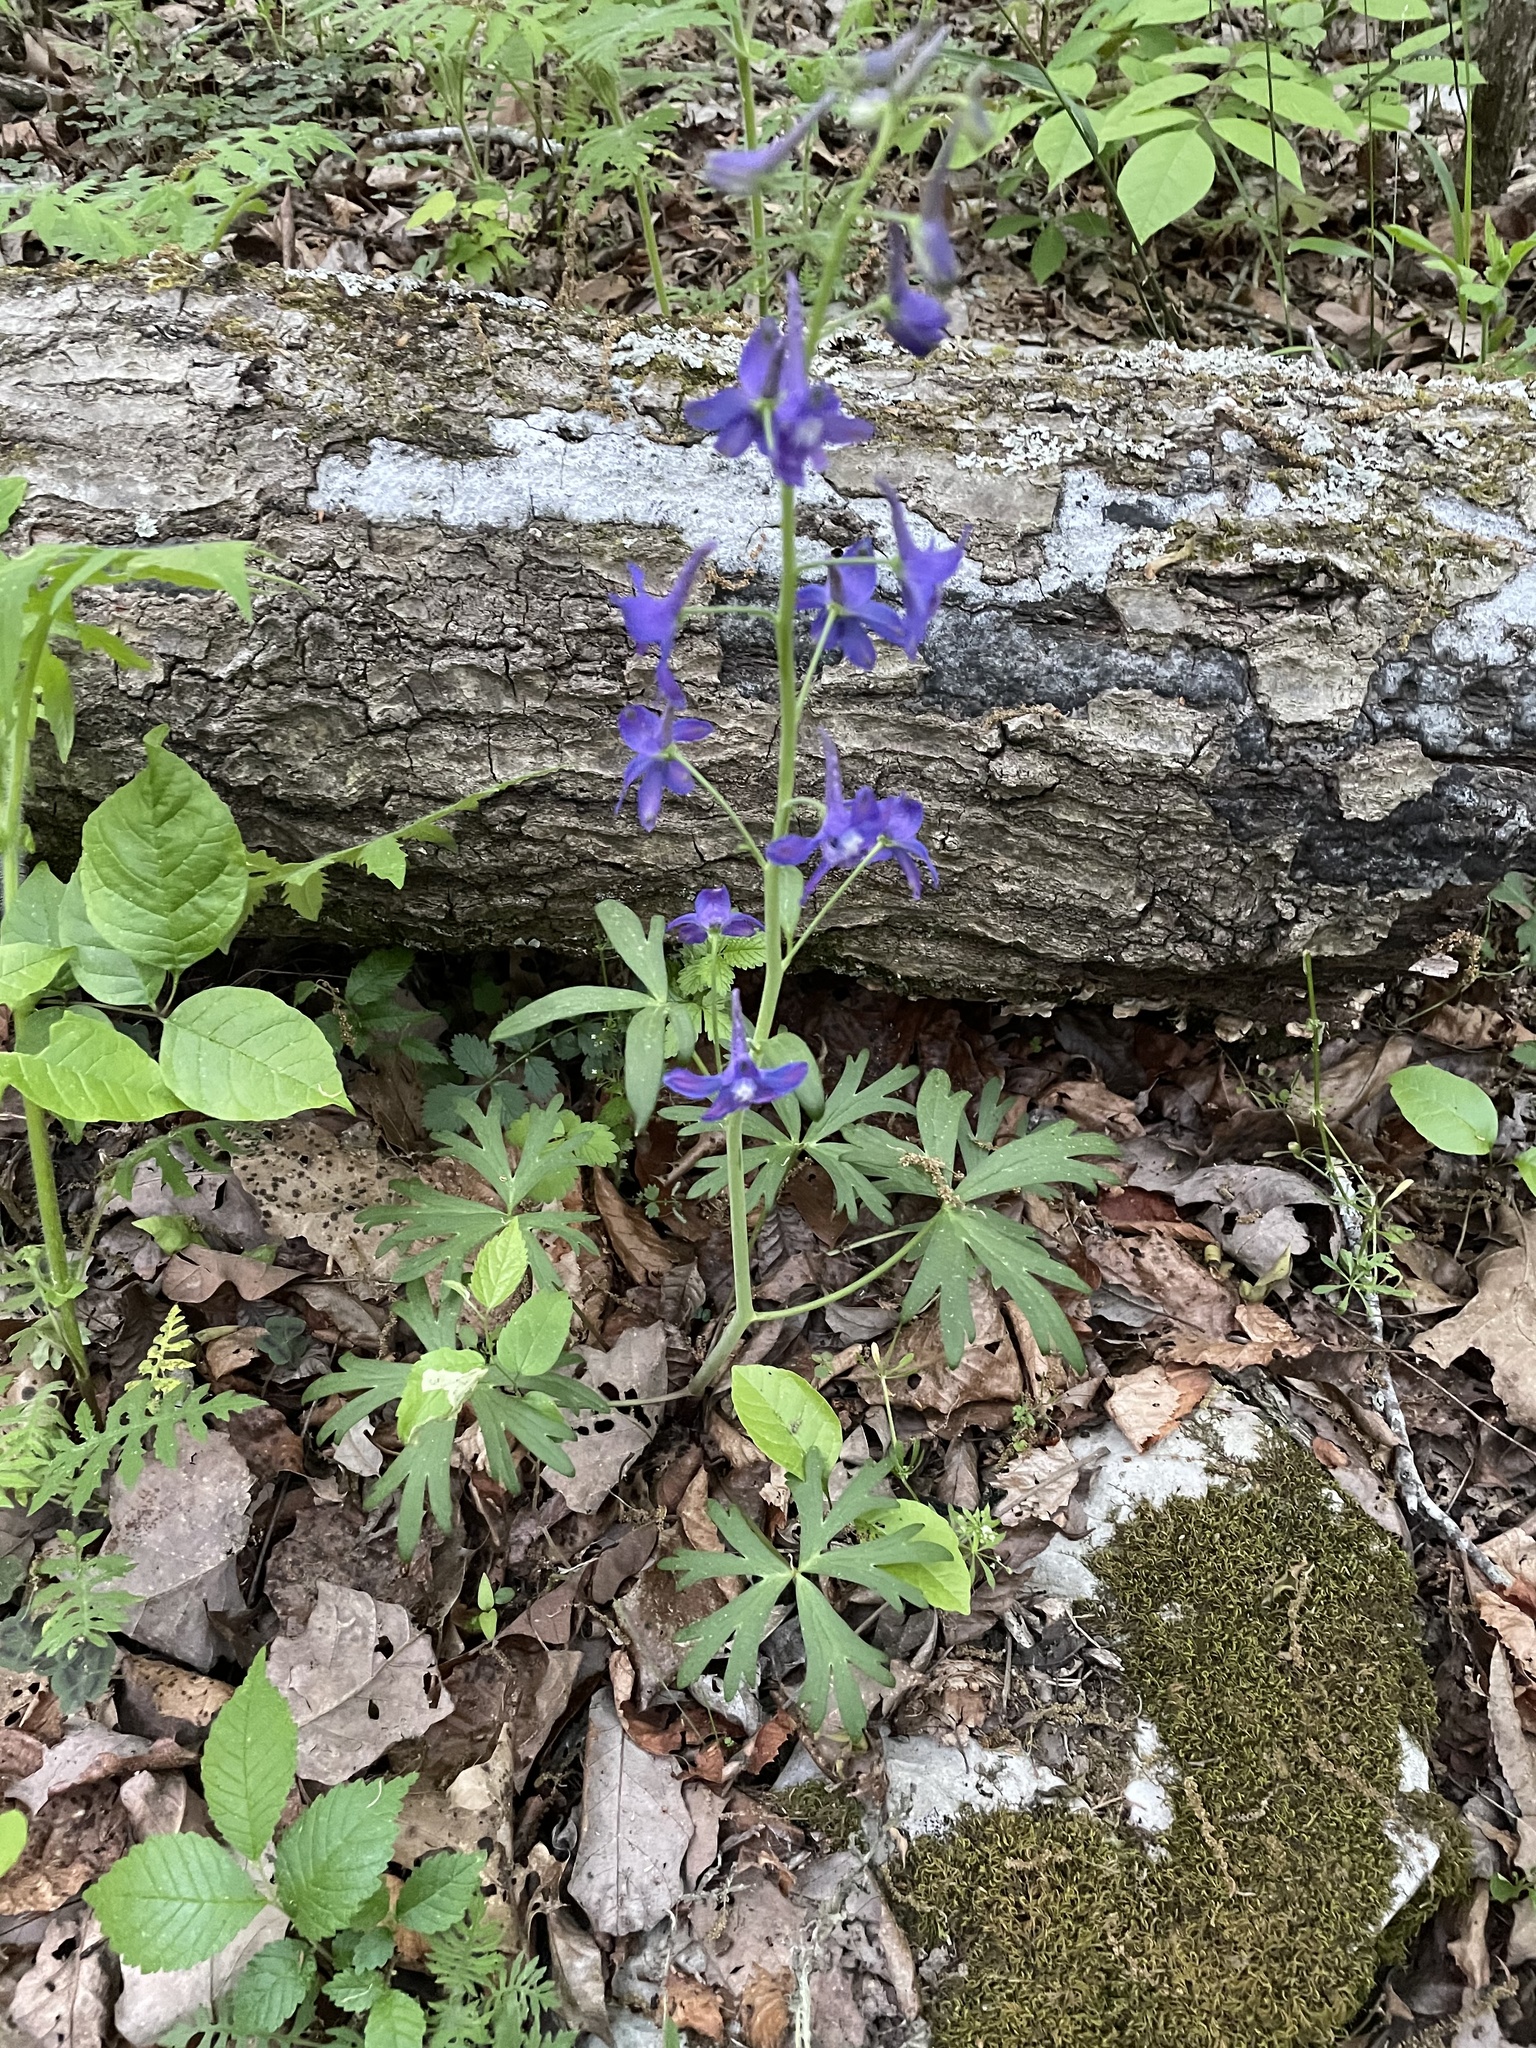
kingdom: Plantae
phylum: Tracheophyta
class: Magnoliopsida
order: Ranunculales
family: Ranunculaceae
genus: Delphinium
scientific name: Delphinium tricorne
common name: Dwarf larkspur
